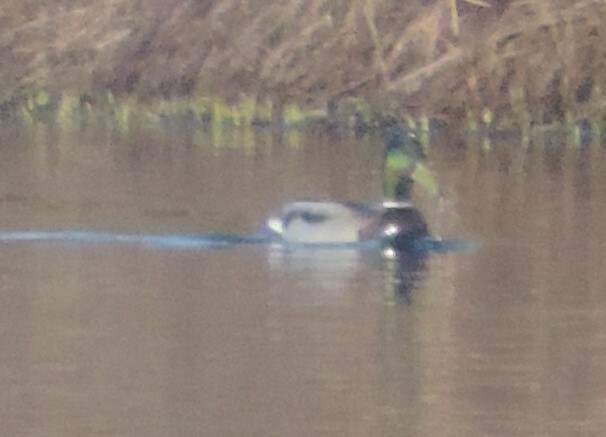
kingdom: Animalia
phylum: Chordata
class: Aves
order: Anseriformes
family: Anatidae
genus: Anas
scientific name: Anas platyrhynchos
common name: Mallard
